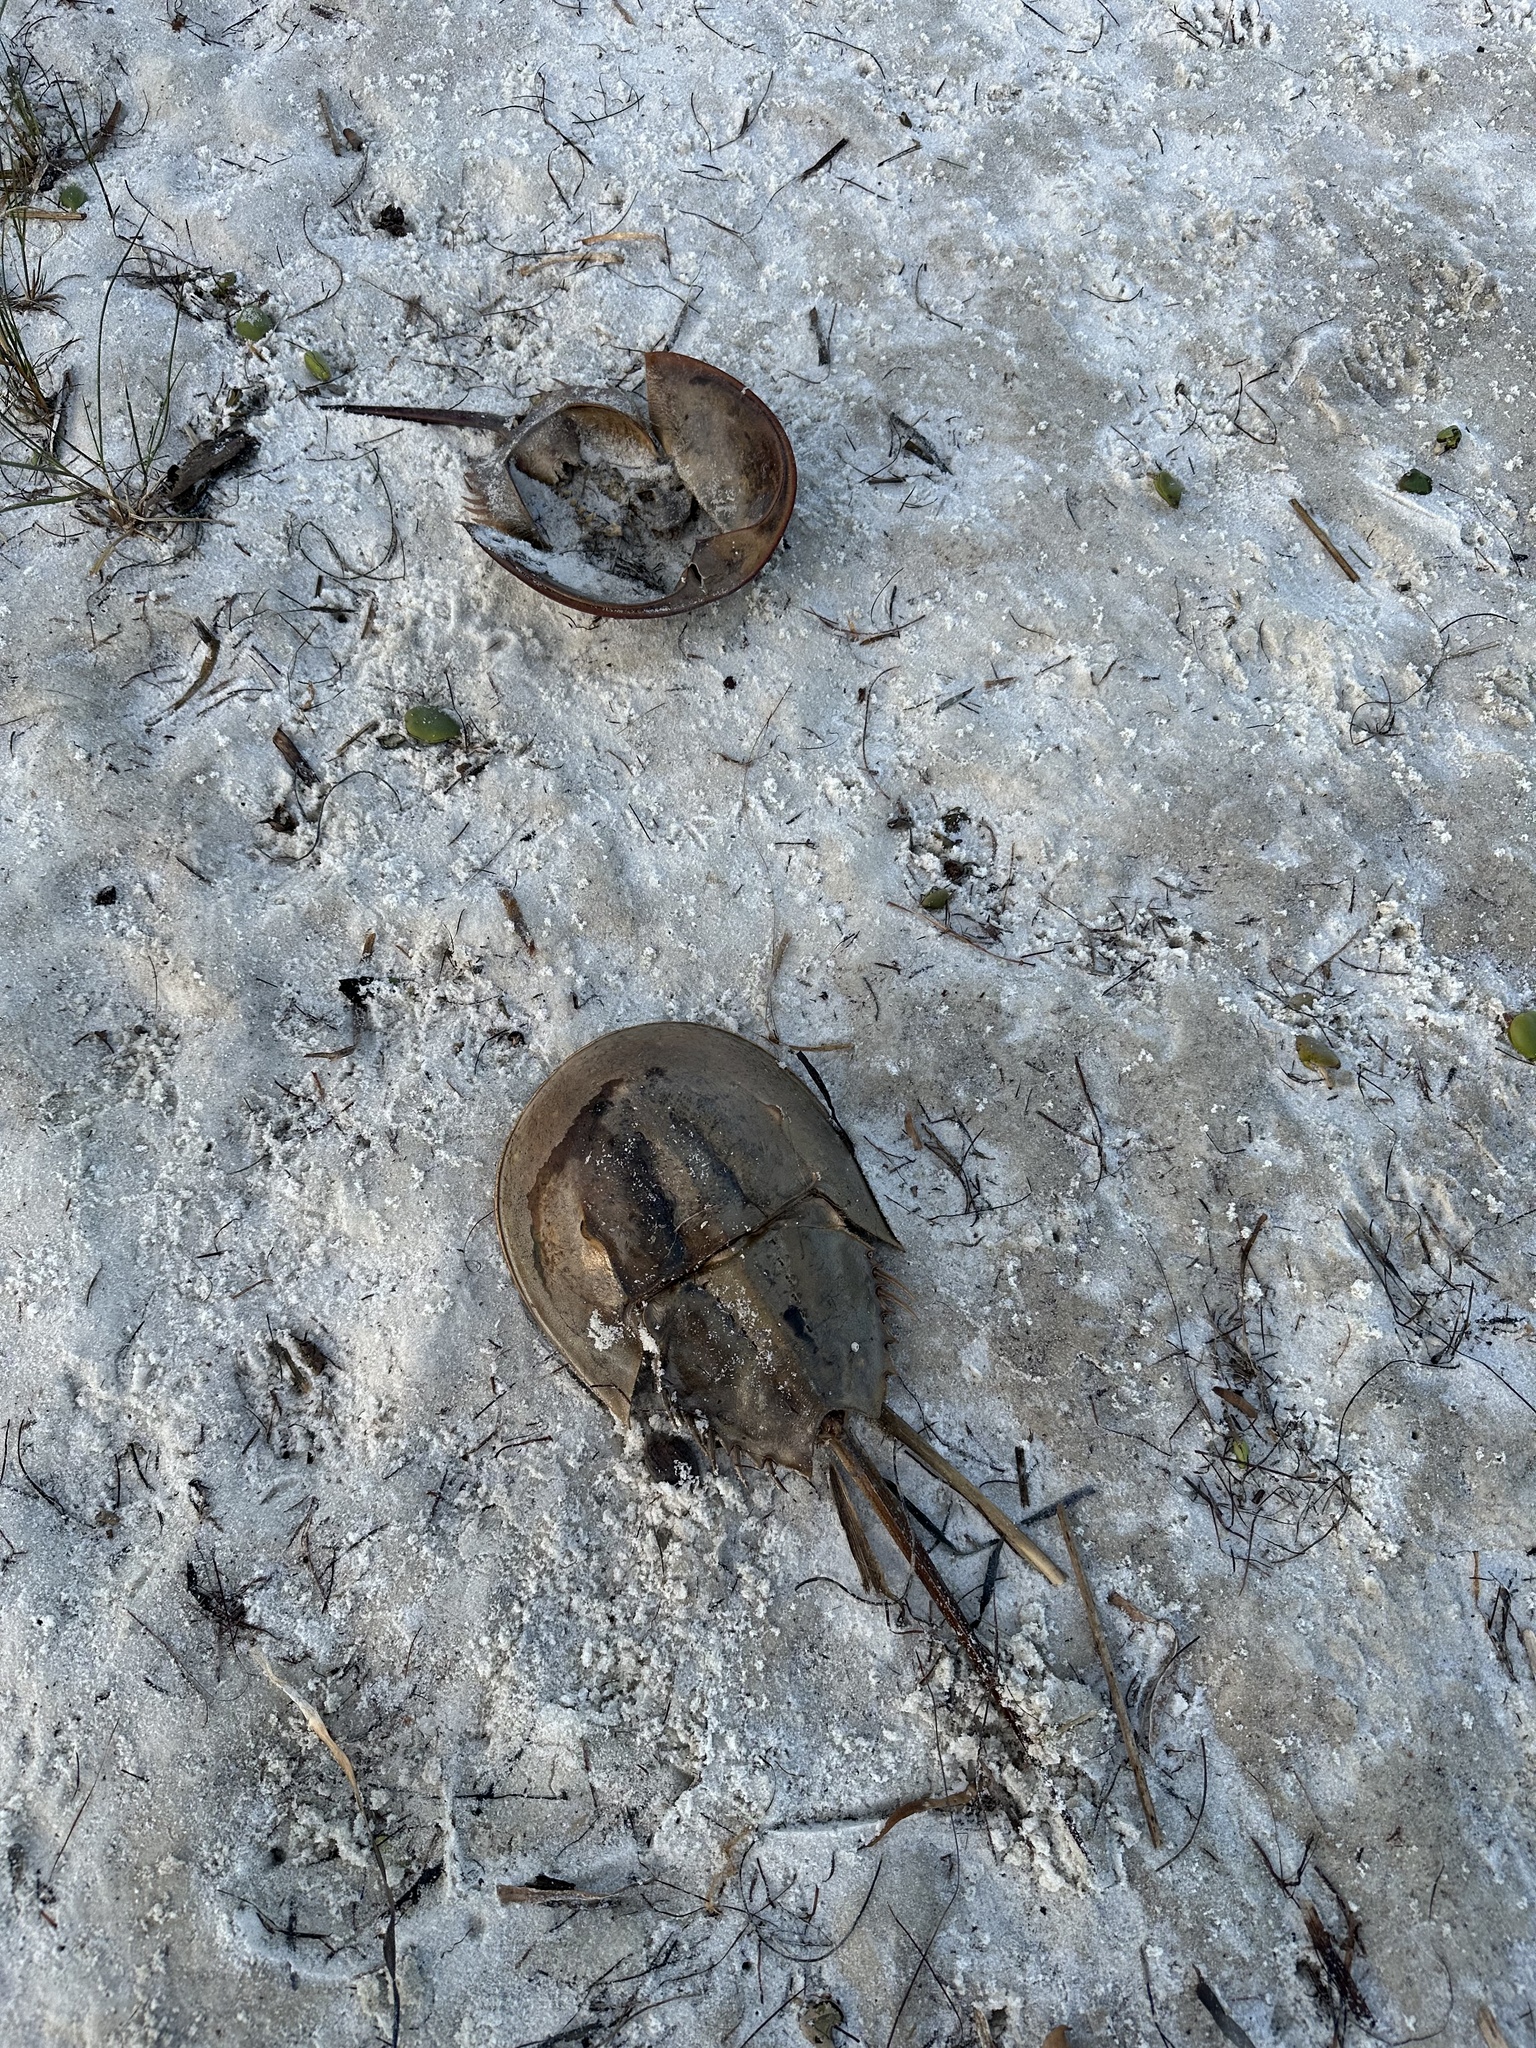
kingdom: Animalia
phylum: Arthropoda
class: Merostomata
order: Xiphosurida
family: Limulidae
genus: Limulus
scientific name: Limulus polyphemus
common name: Horseshoe crab
